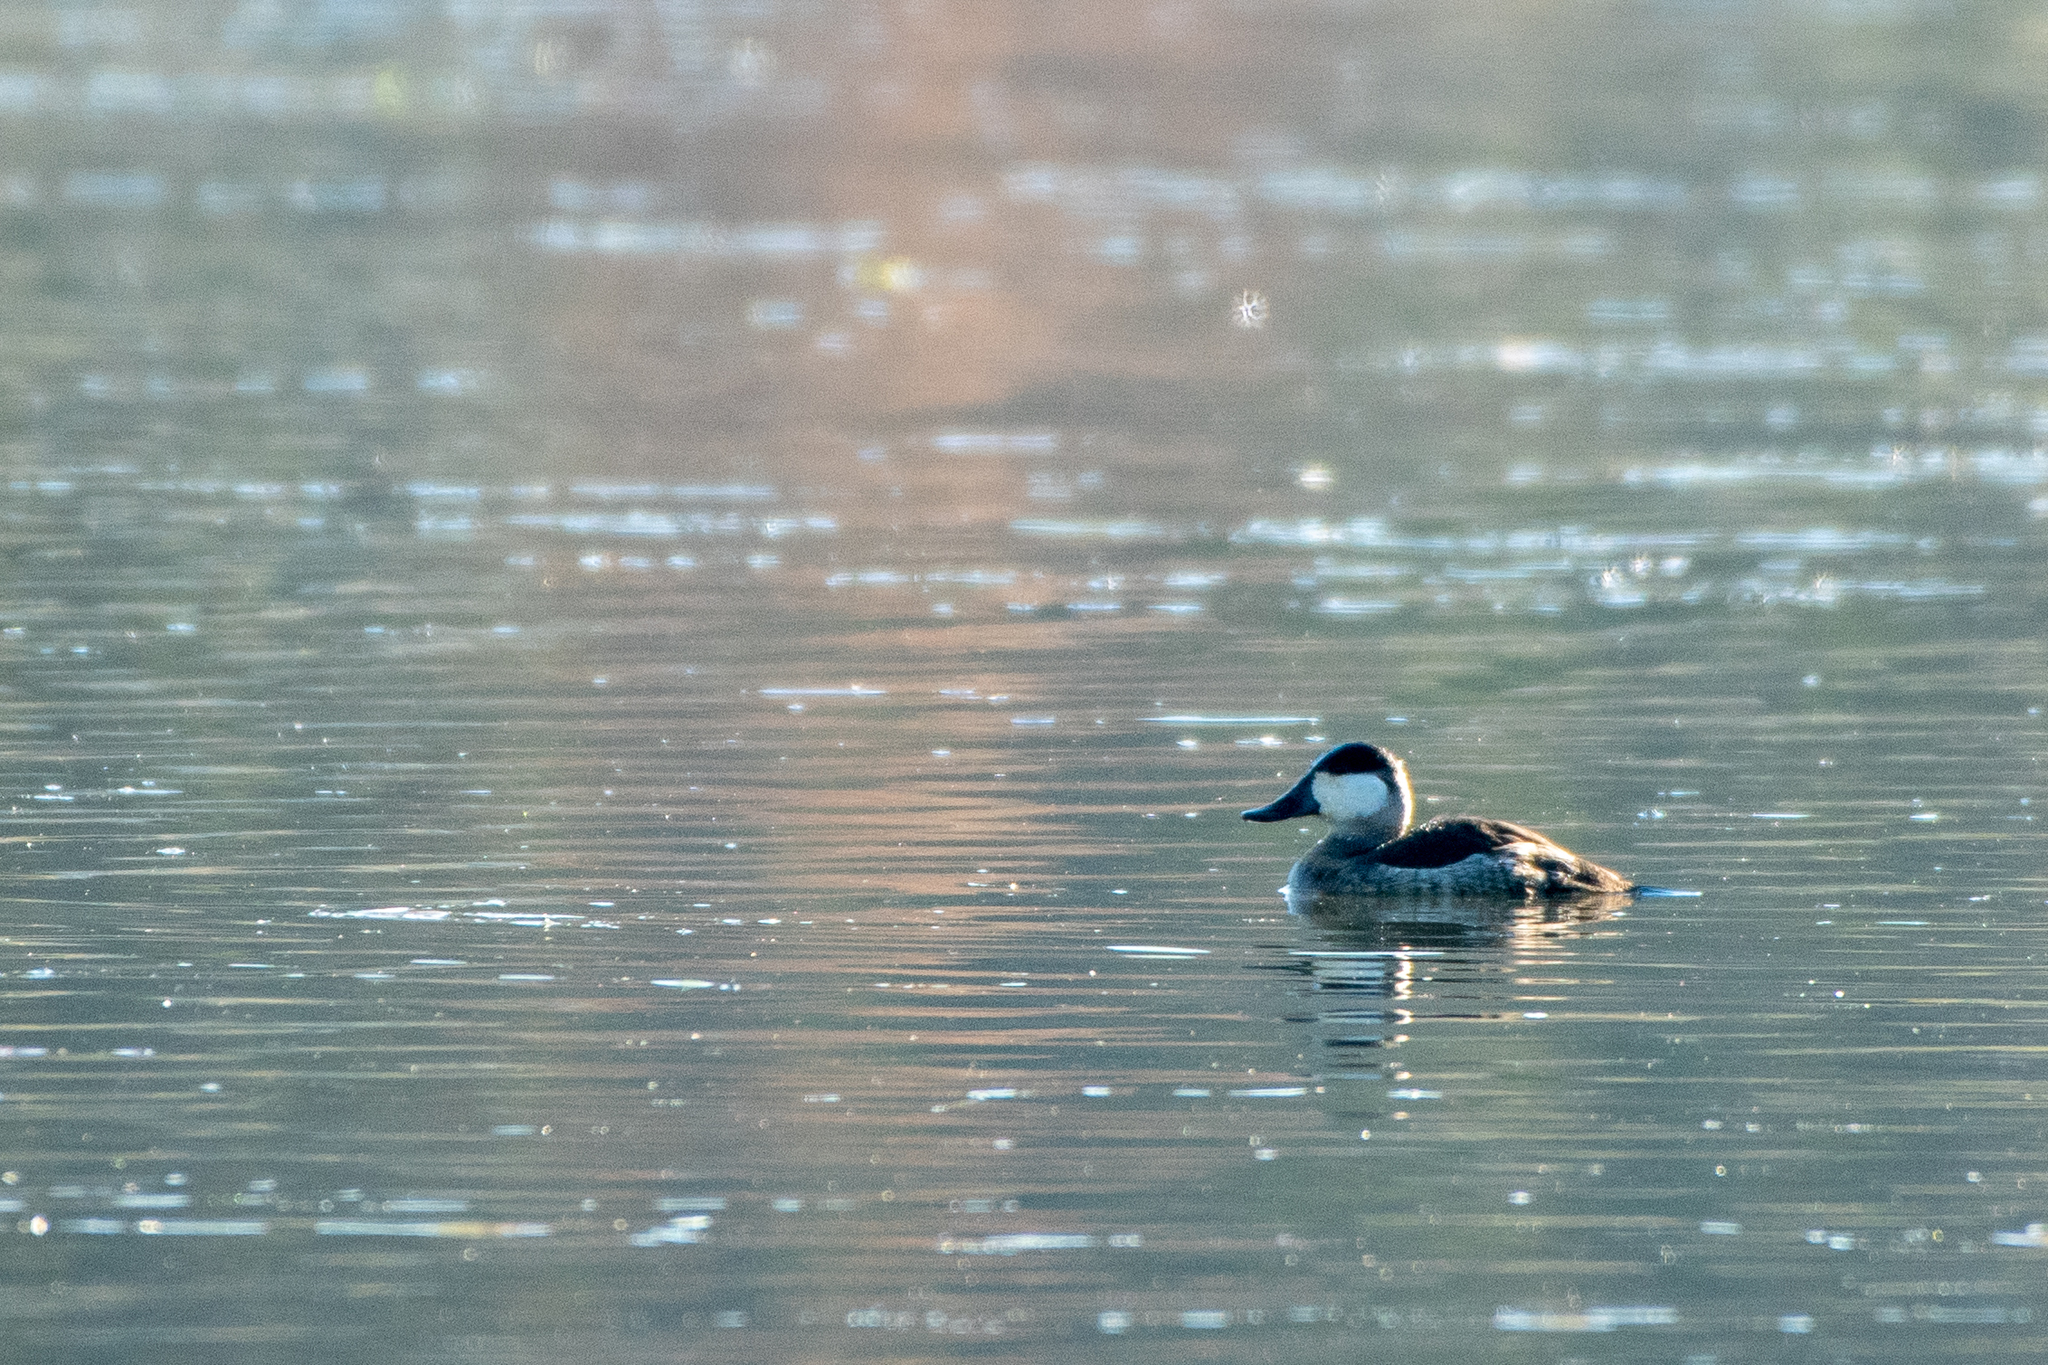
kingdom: Animalia
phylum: Chordata
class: Aves
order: Anseriformes
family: Anatidae
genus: Oxyura
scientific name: Oxyura jamaicensis
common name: Ruddy duck
